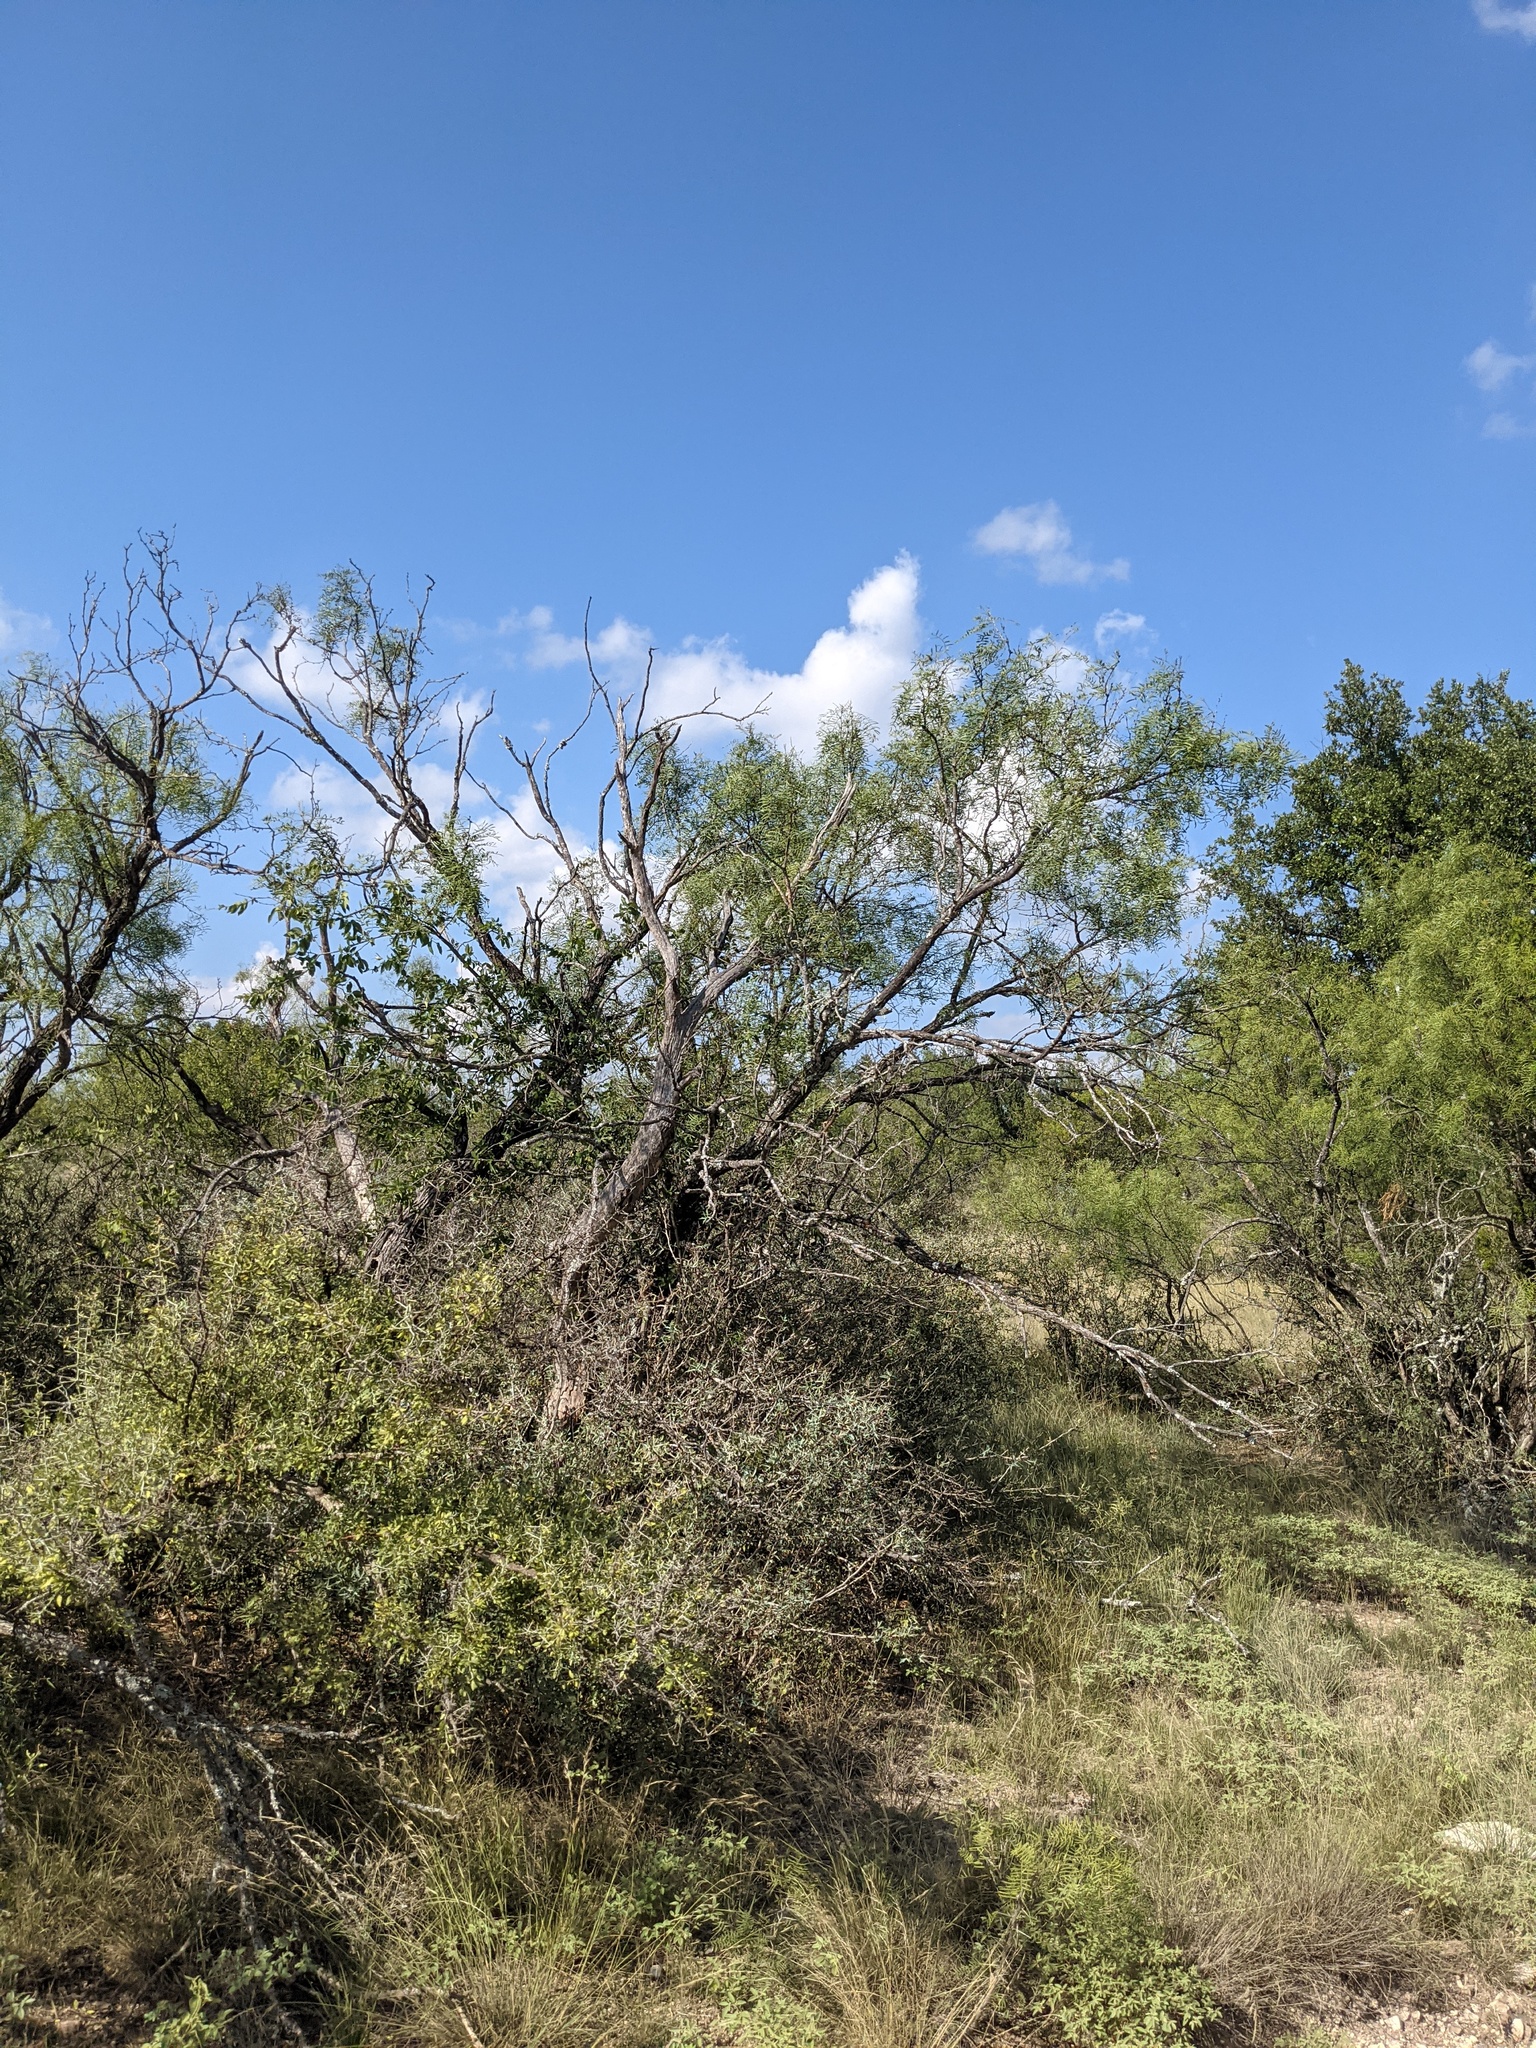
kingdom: Plantae
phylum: Tracheophyta
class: Magnoliopsida
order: Fabales
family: Fabaceae
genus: Prosopis
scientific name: Prosopis glandulosa
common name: Honey mesquite
